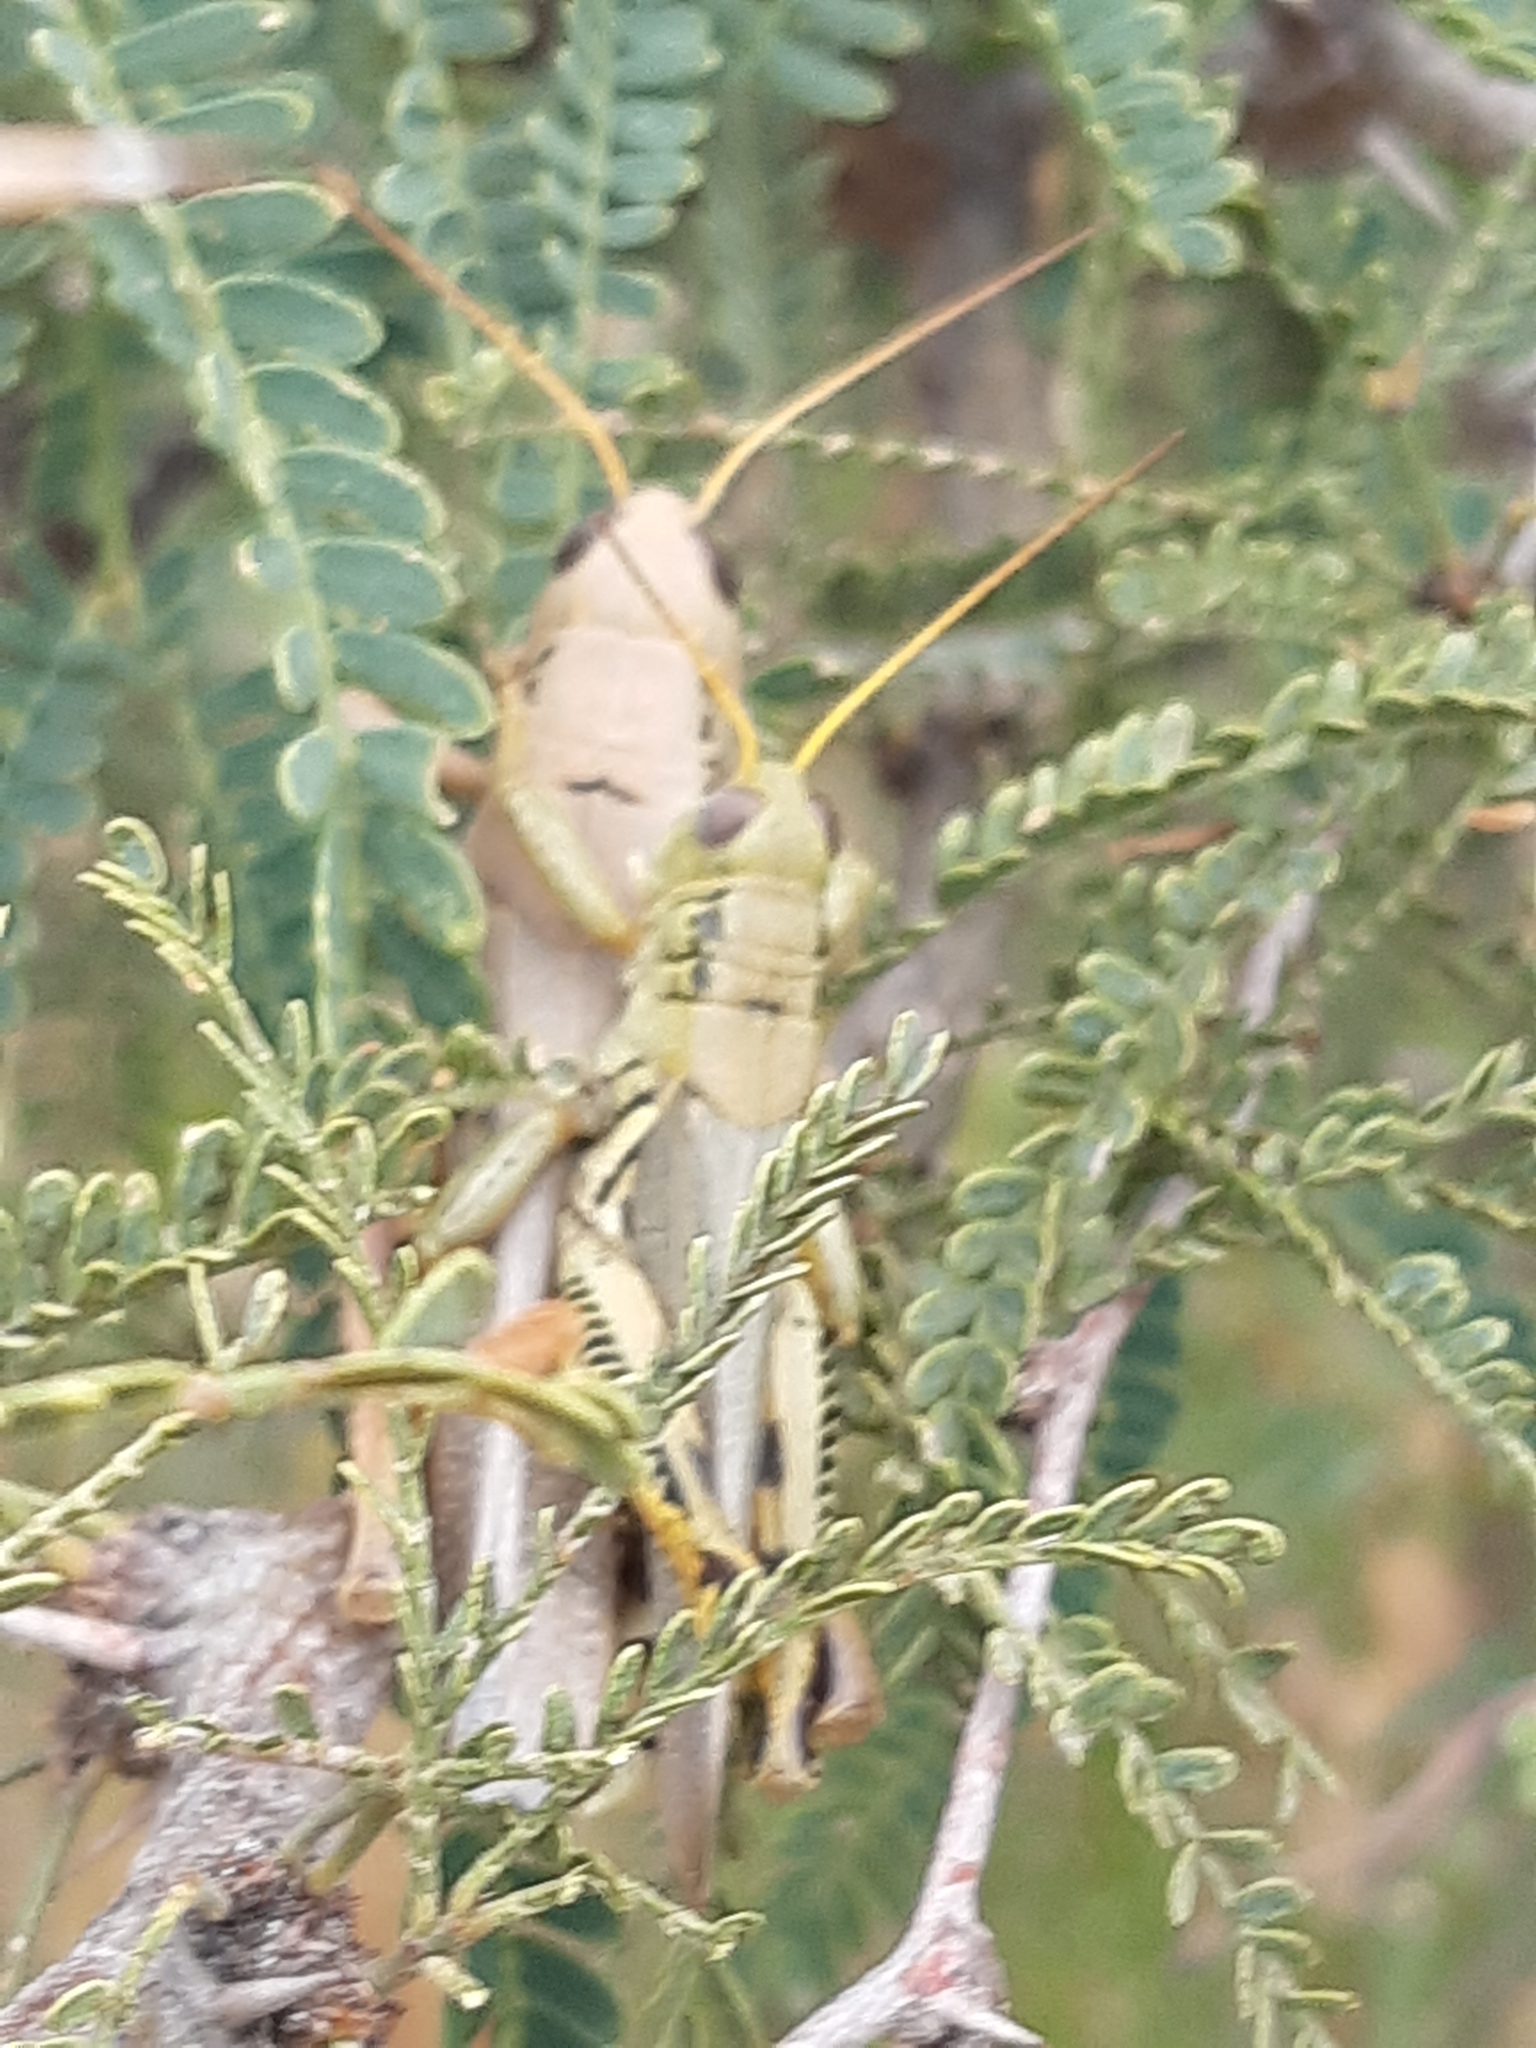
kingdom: Animalia
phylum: Arthropoda
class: Insecta
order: Orthoptera
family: Acrididae
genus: Melanoplus
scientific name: Melanoplus differentialis
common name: Differential grasshopper
